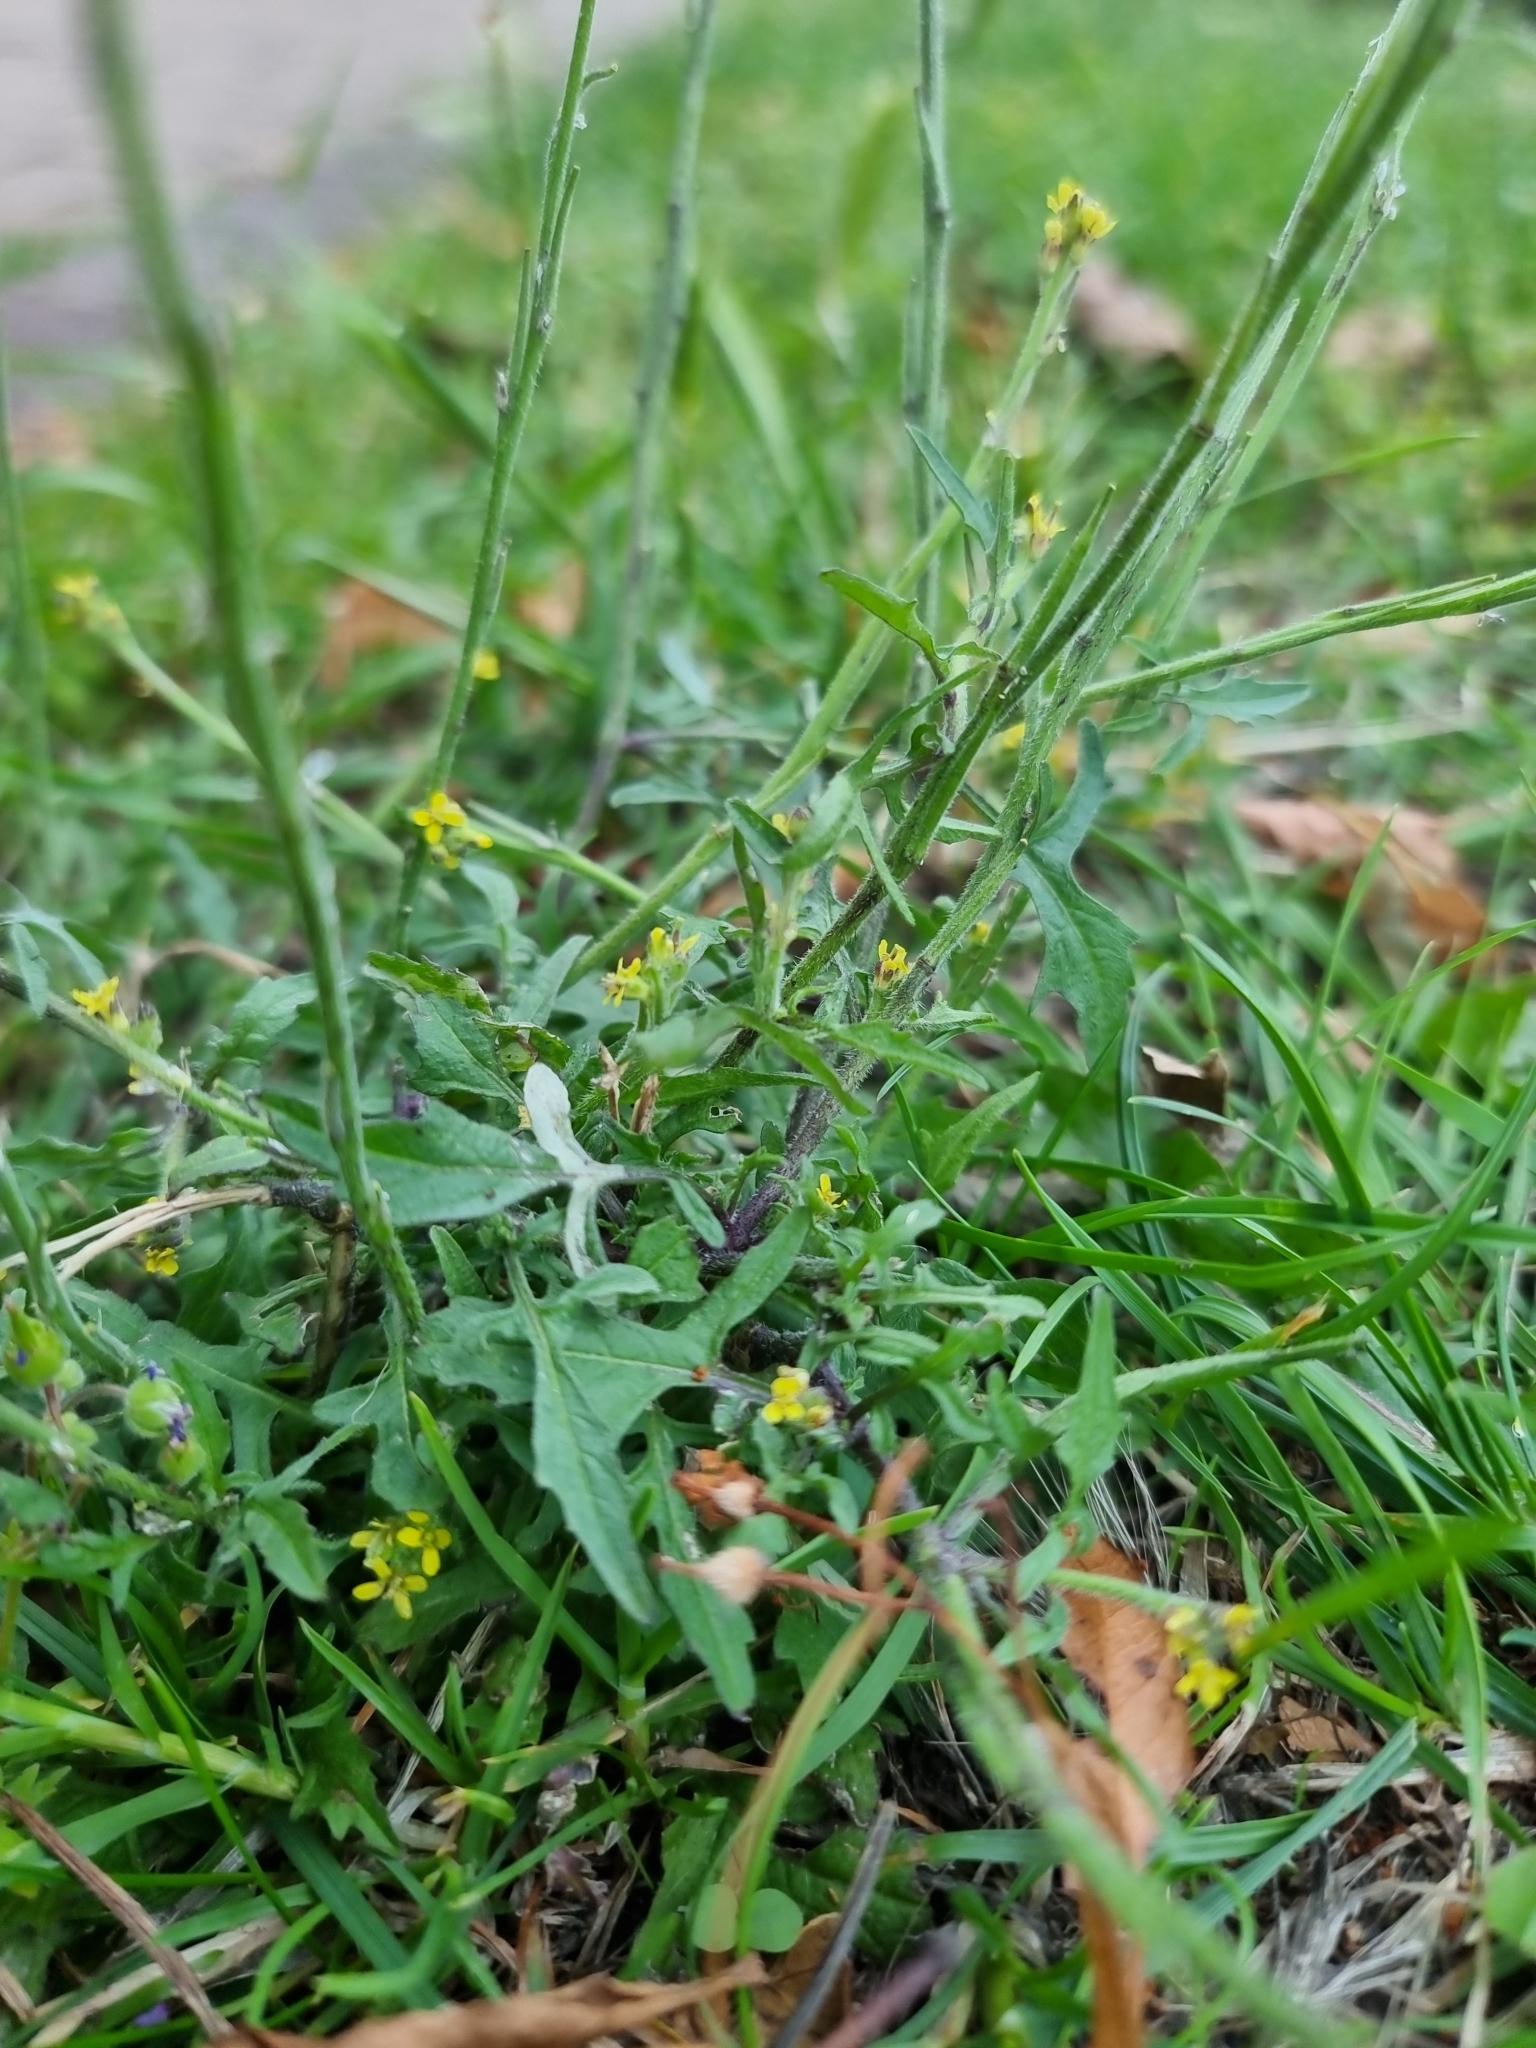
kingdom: Plantae
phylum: Tracheophyta
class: Magnoliopsida
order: Brassicales
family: Brassicaceae
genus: Sisymbrium
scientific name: Sisymbrium officinale
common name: Hedge mustard
